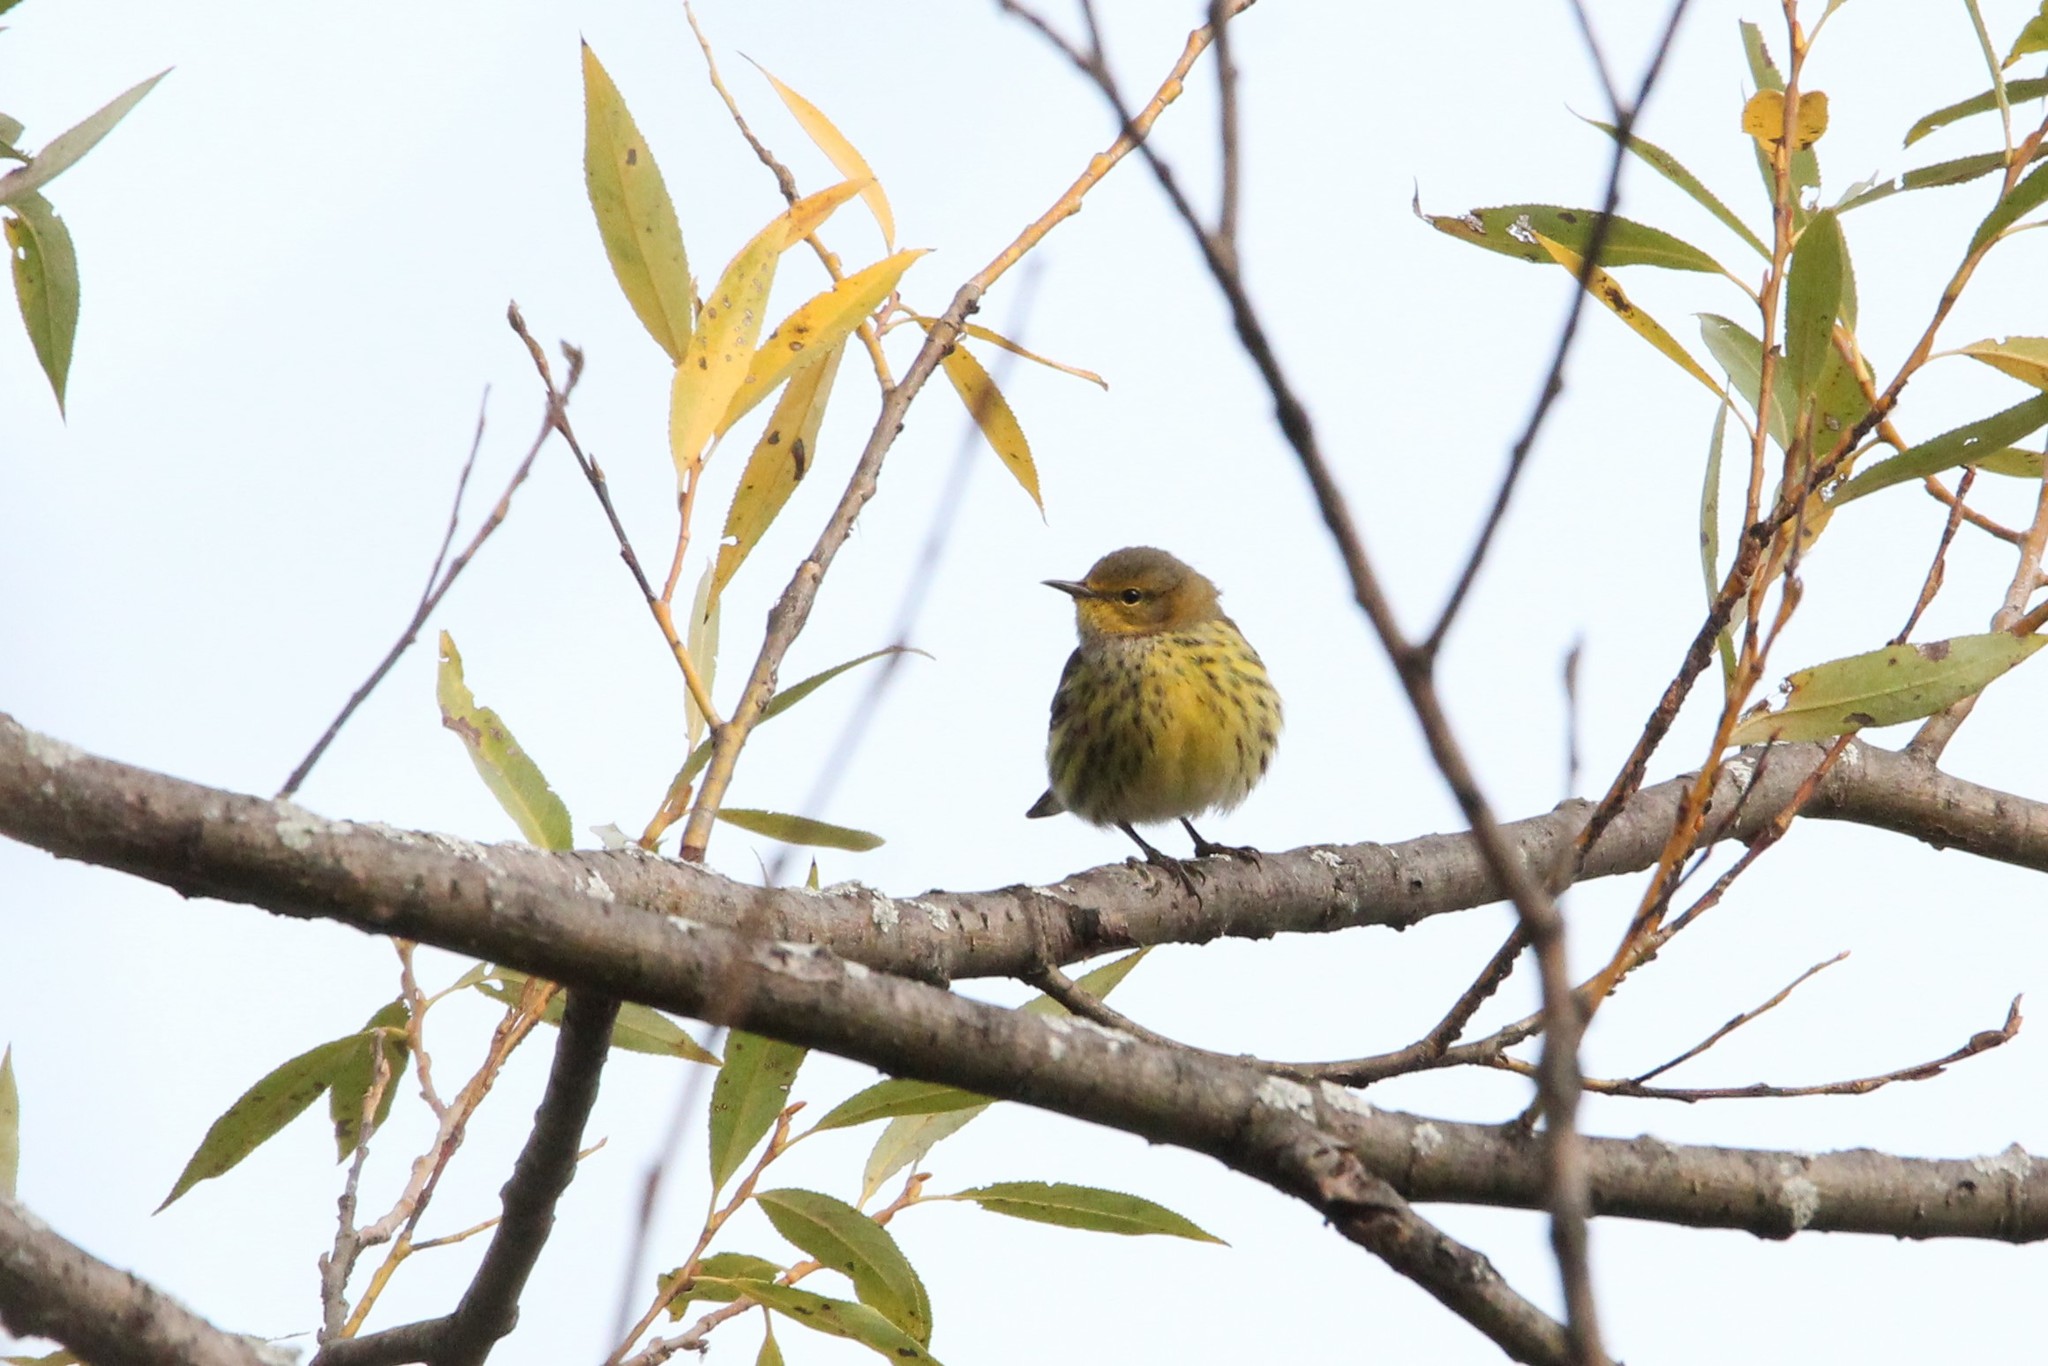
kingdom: Animalia
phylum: Chordata
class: Aves
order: Passeriformes
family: Parulidae
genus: Setophaga
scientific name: Setophaga tigrina
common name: Cape may warbler
